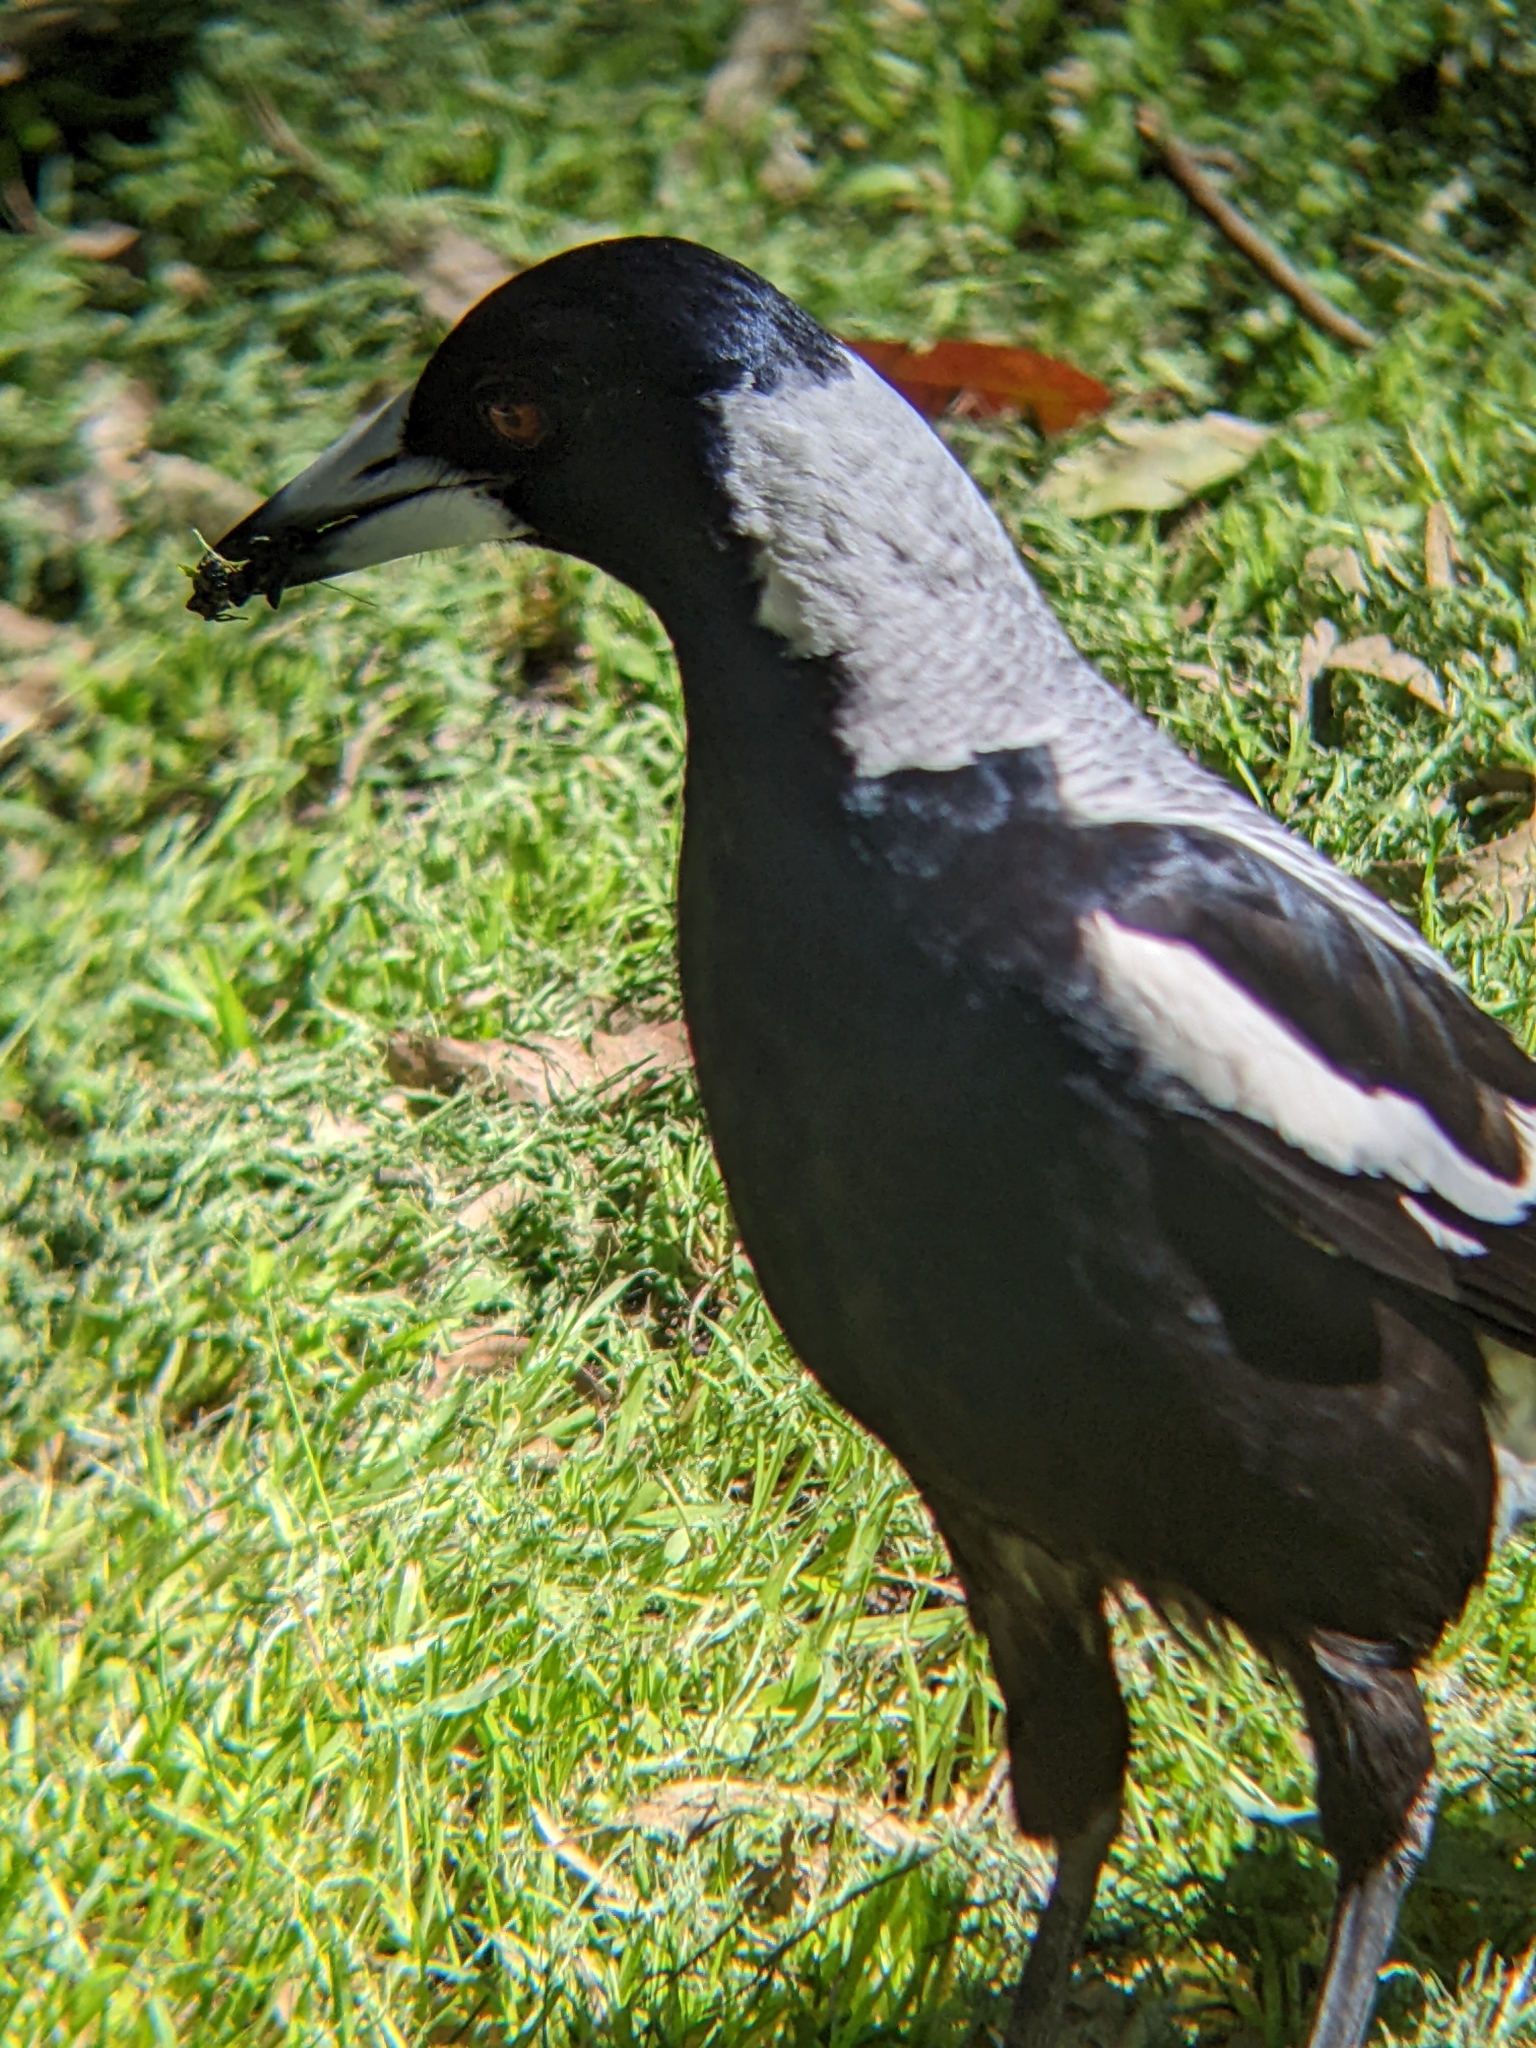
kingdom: Animalia
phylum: Chordata
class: Aves
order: Passeriformes
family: Cracticidae
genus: Gymnorhina
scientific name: Gymnorhina tibicen
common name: Australian magpie
